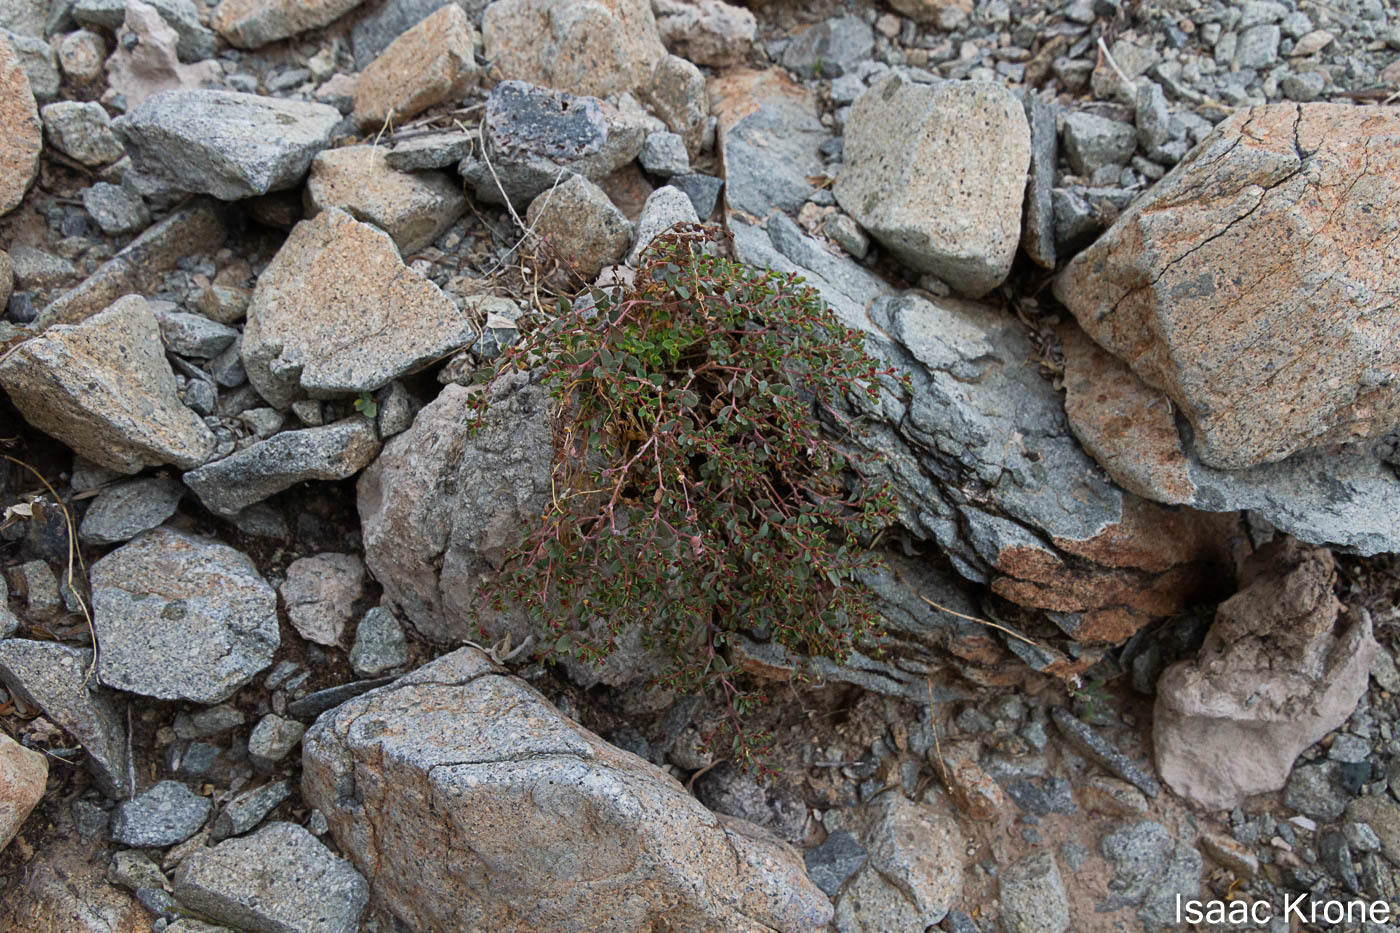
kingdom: Plantae
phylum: Tracheophyta
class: Magnoliopsida
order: Malpighiales
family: Euphorbiaceae
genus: Euphorbia
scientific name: Euphorbia polycarpa
